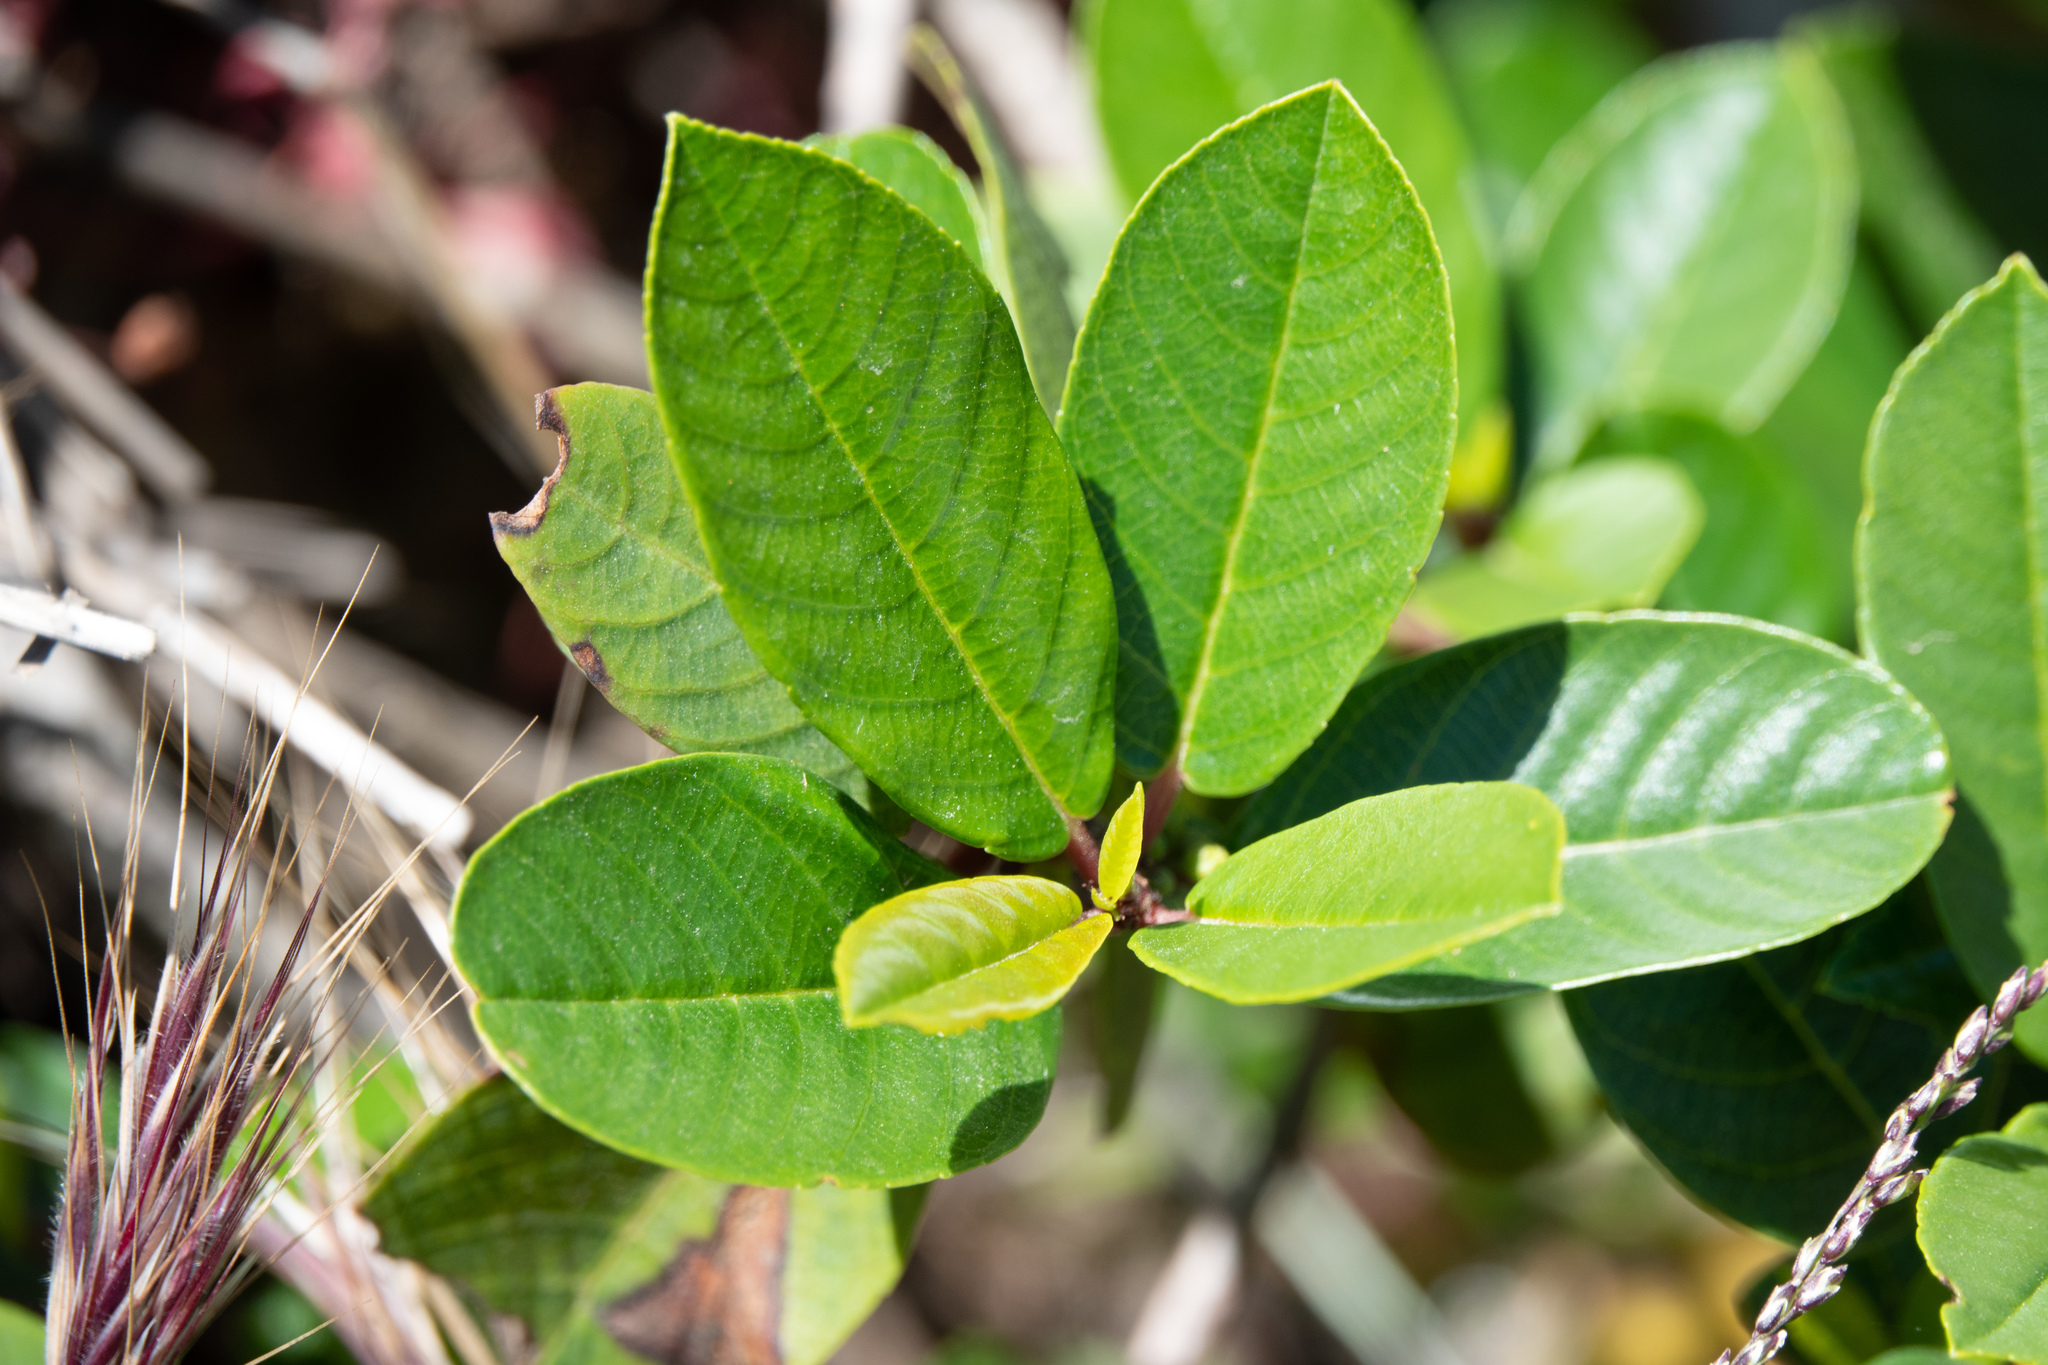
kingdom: Plantae
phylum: Tracheophyta
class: Magnoliopsida
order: Rosales
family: Rhamnaceae
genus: Frangula
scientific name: Frangula californica
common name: California buckthorn
